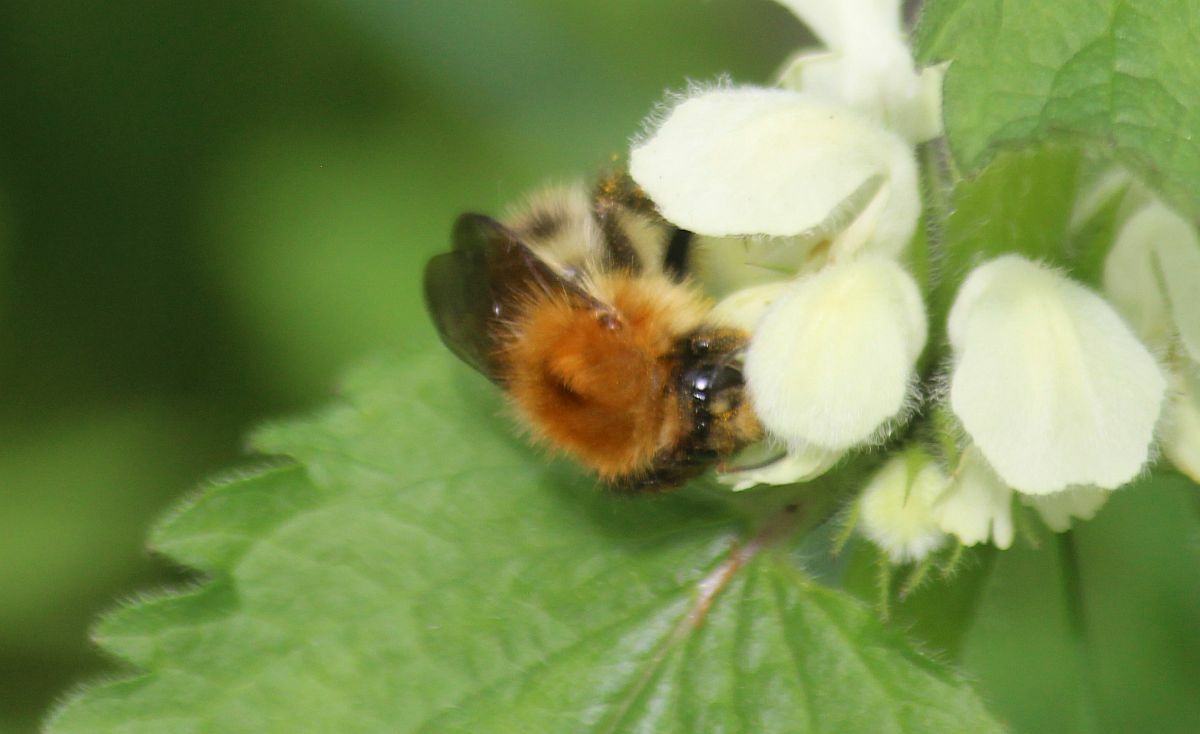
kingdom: Animalia
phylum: Arthropoda
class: Insecta
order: Hymenoptera
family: Apidae
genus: Bombus
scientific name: Bombus pascuorum
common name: Common carder bee
